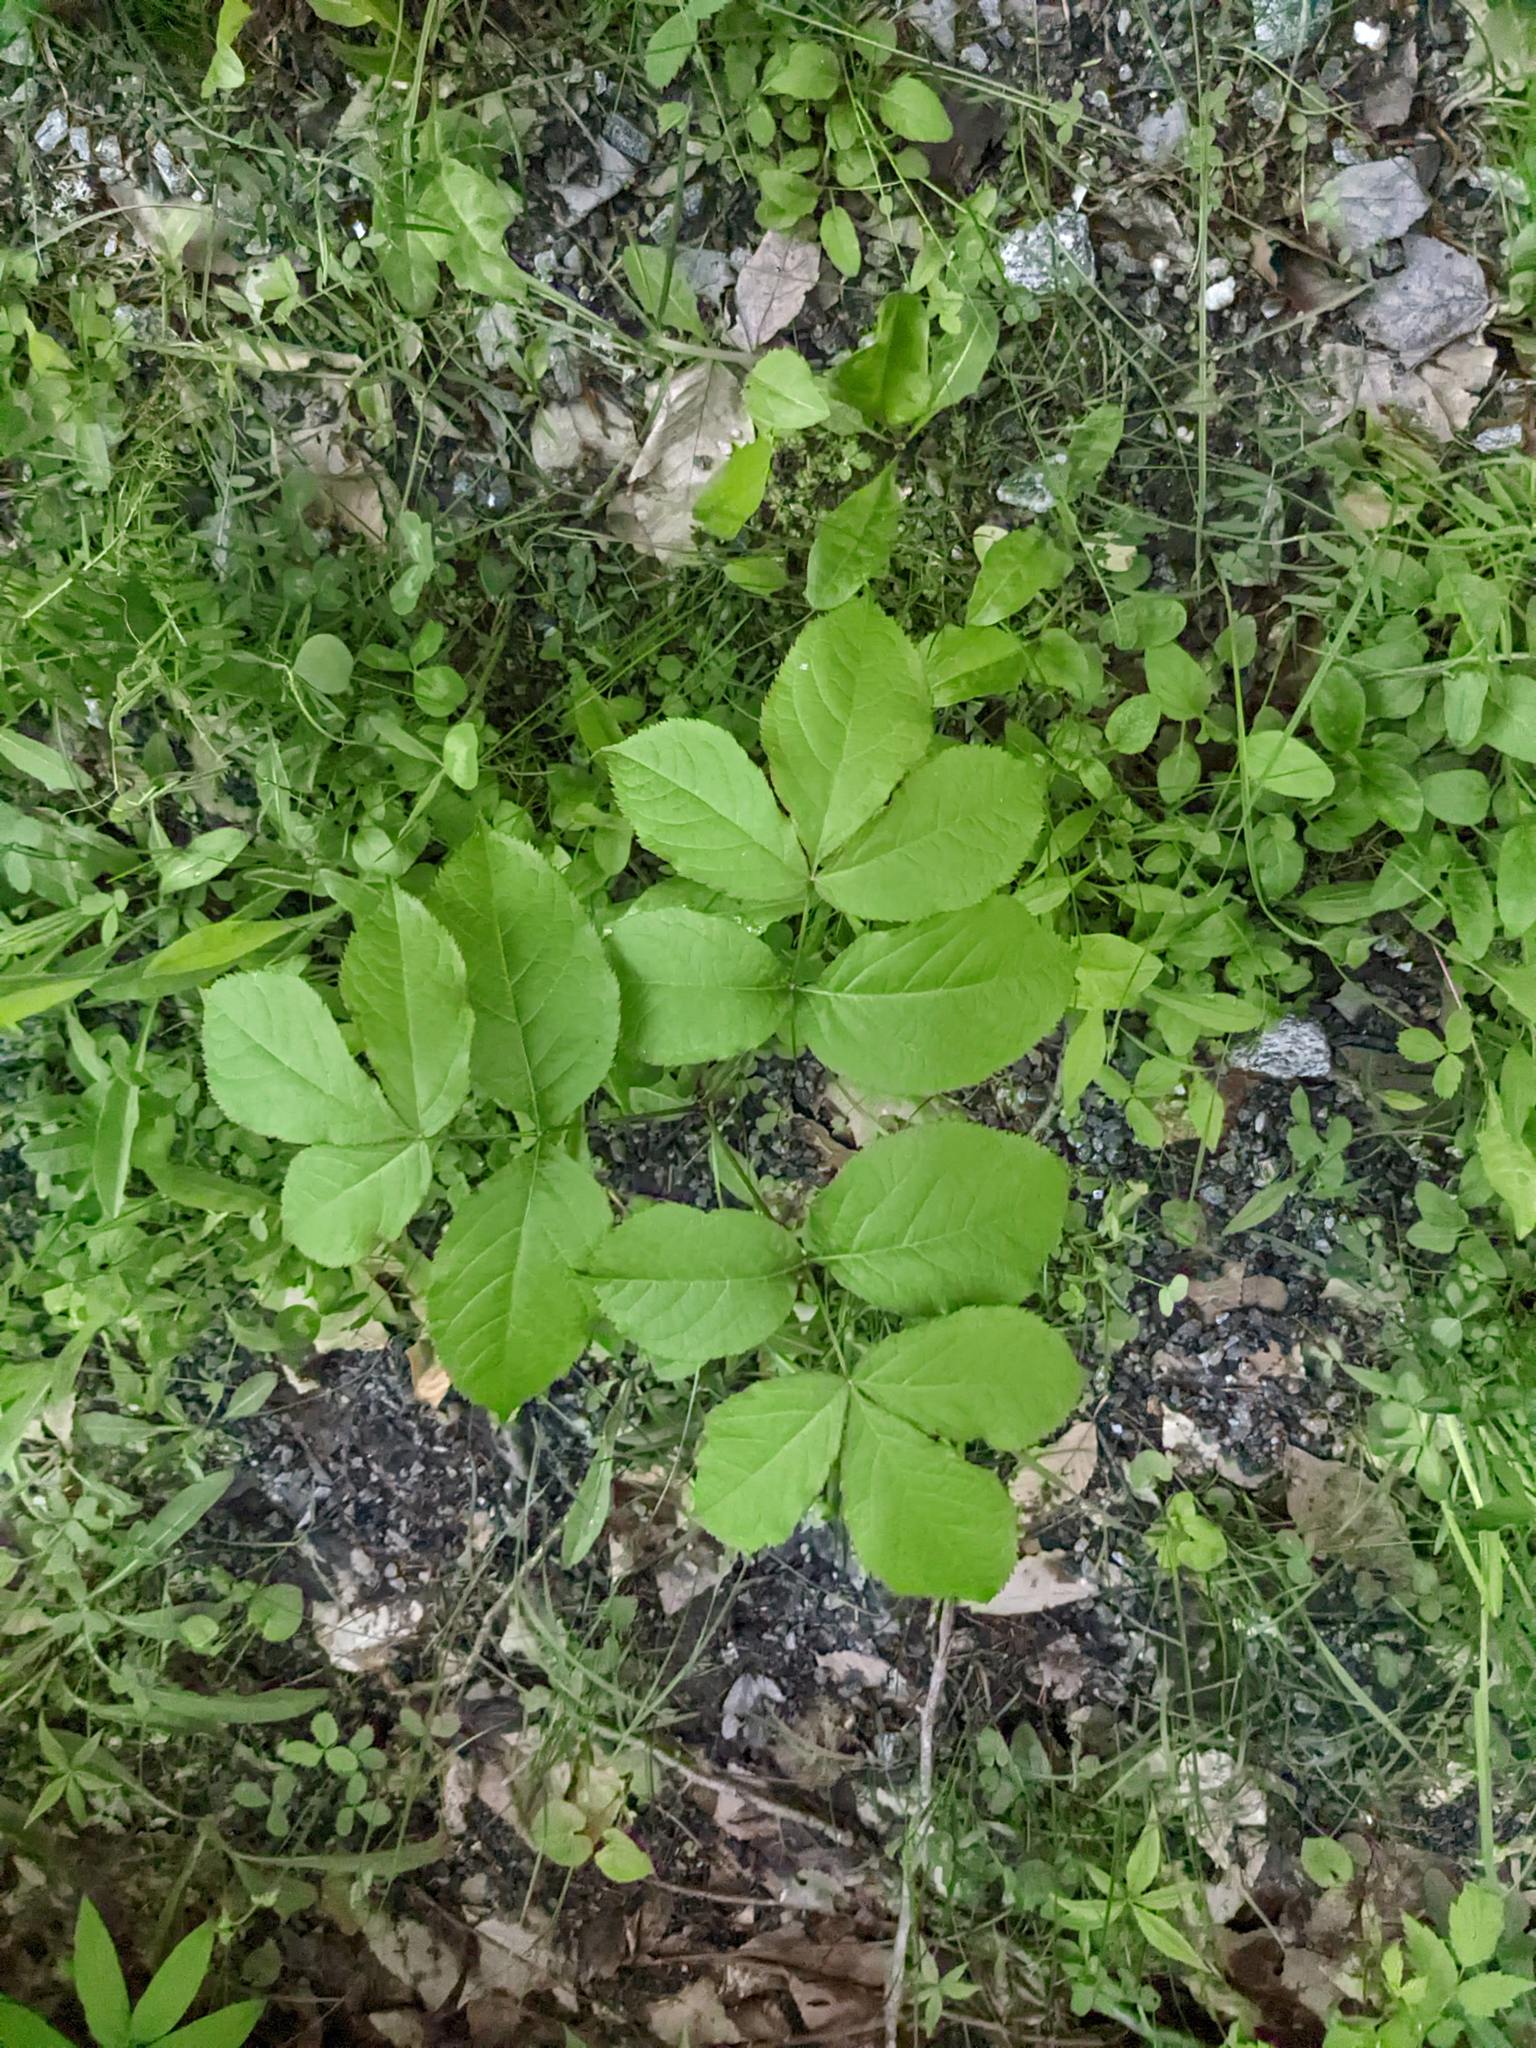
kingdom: Plantae
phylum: Tracheophyta
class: Magnoliopsida
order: Apiales
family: Araliaceae
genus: Aralia
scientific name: Aralia nudicaulis
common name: Wild sarsaparilla
